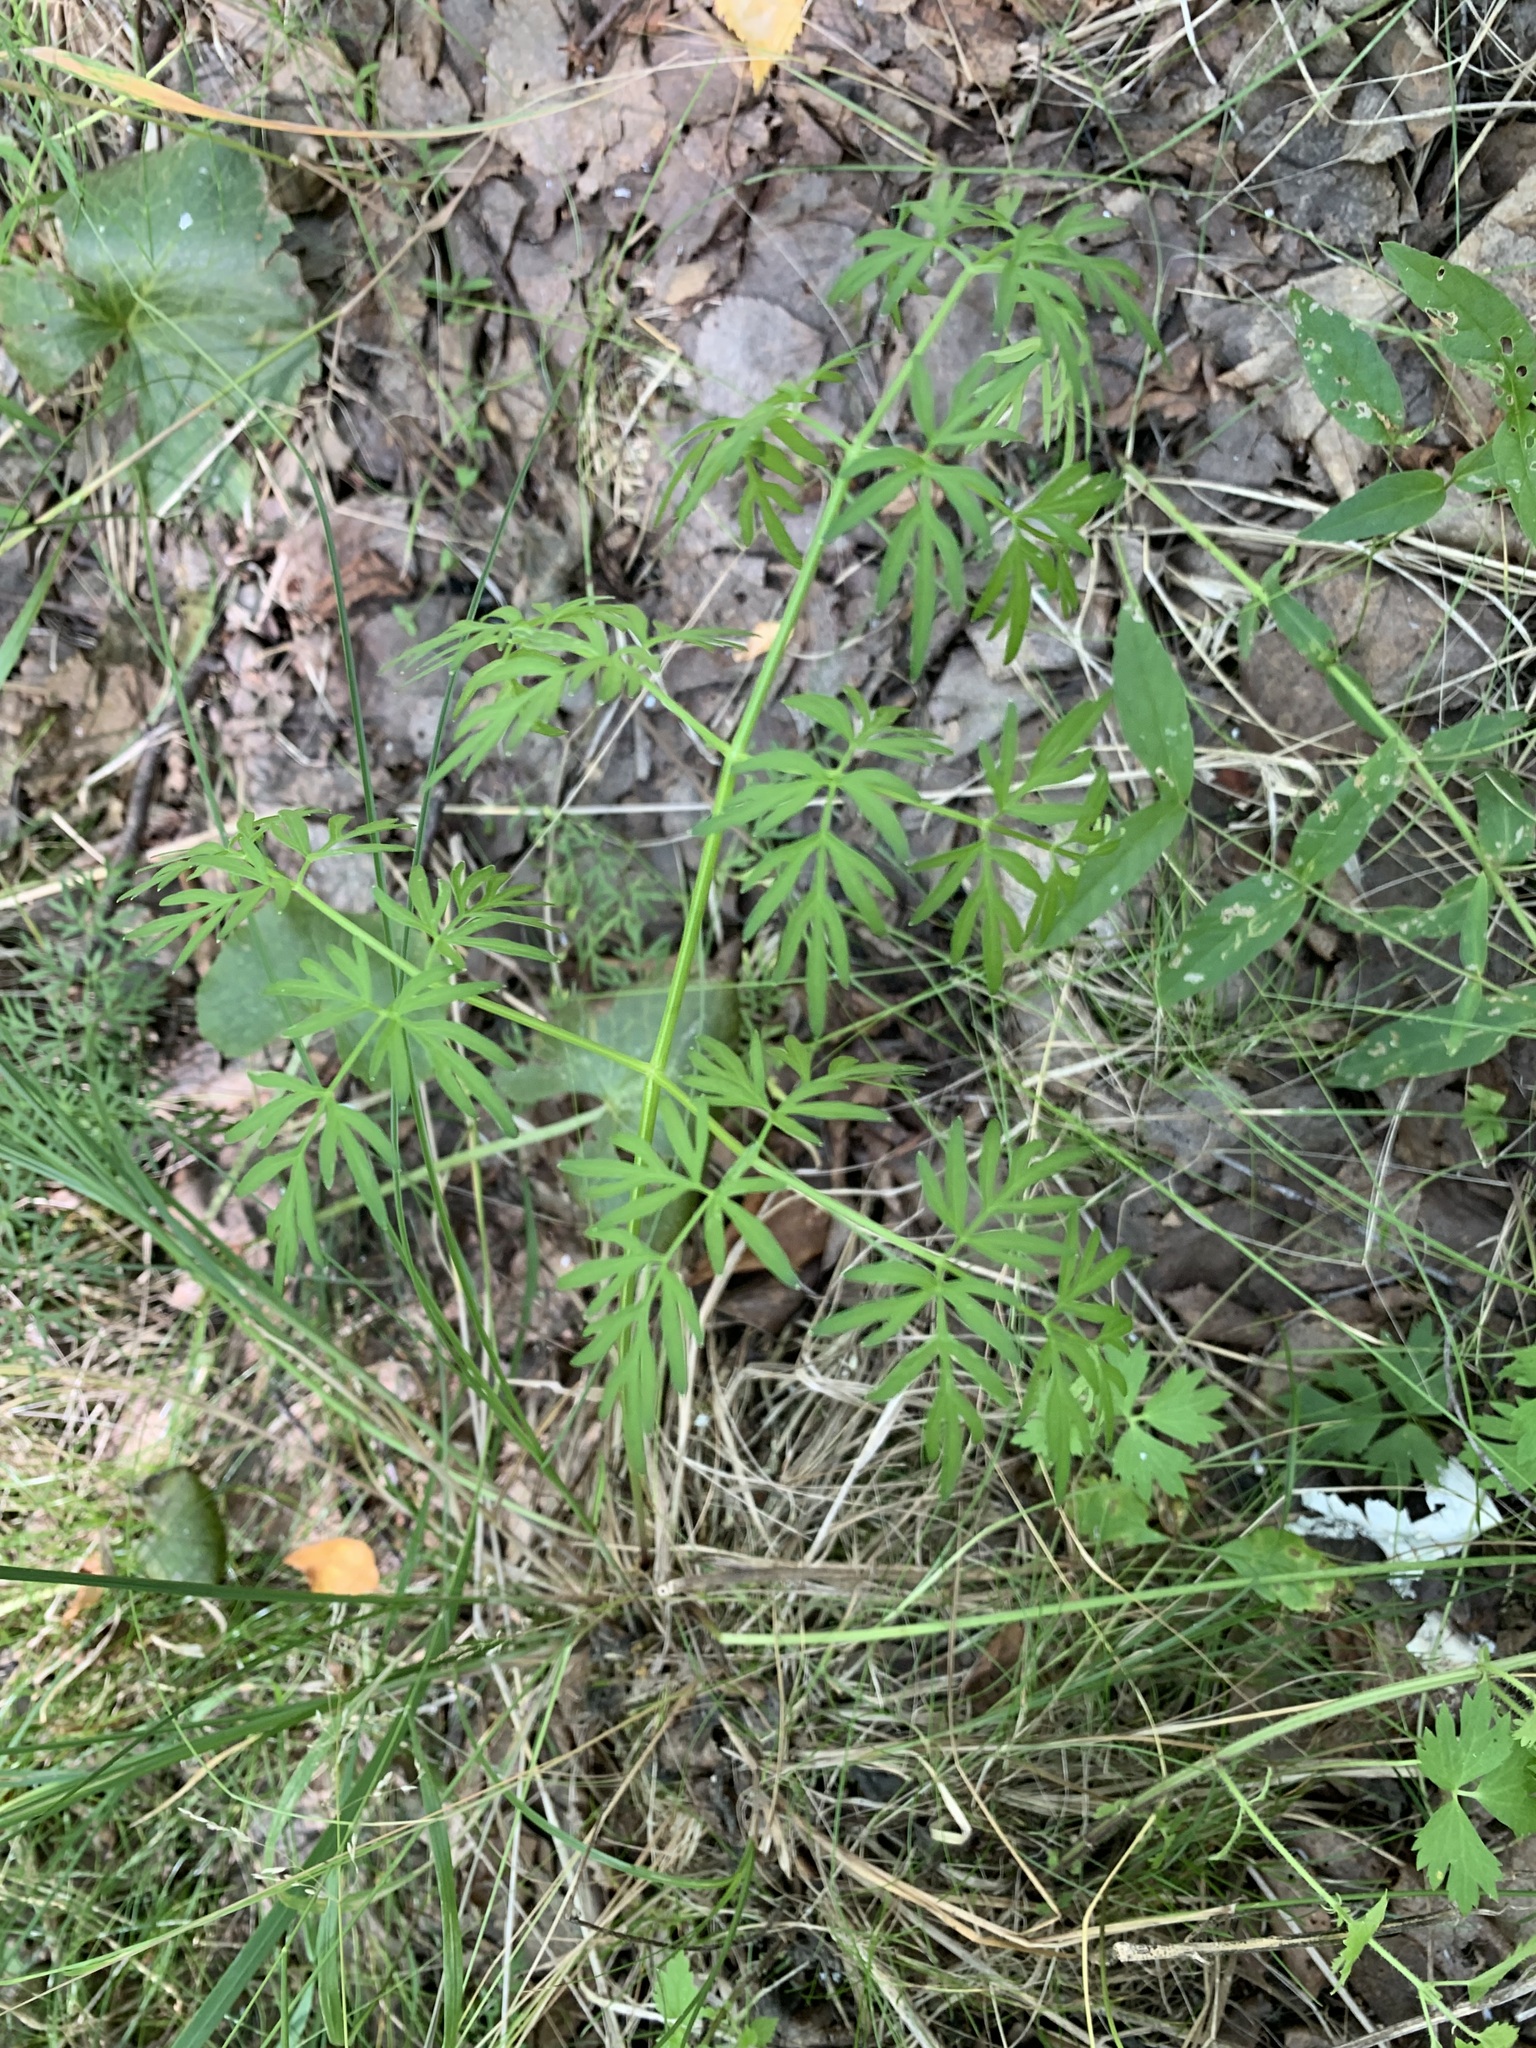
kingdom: Plantae
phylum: Tracheophyta
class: Magnoliopsida
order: Apiales
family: Apiaceae
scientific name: Apiaceae
